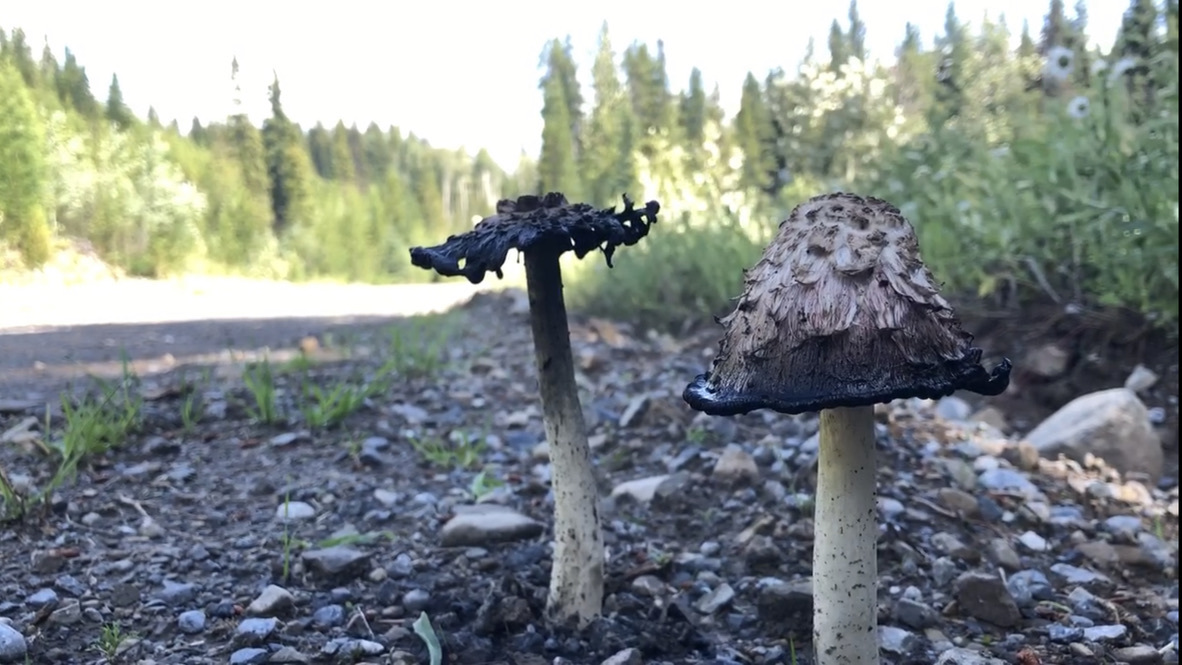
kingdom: Fungi
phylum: Basidiomycota
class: Agaricomycetes
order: Agaricales
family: Agaricaceae
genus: Coprinus
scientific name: Coprinus comatus
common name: Lawyer's wig
